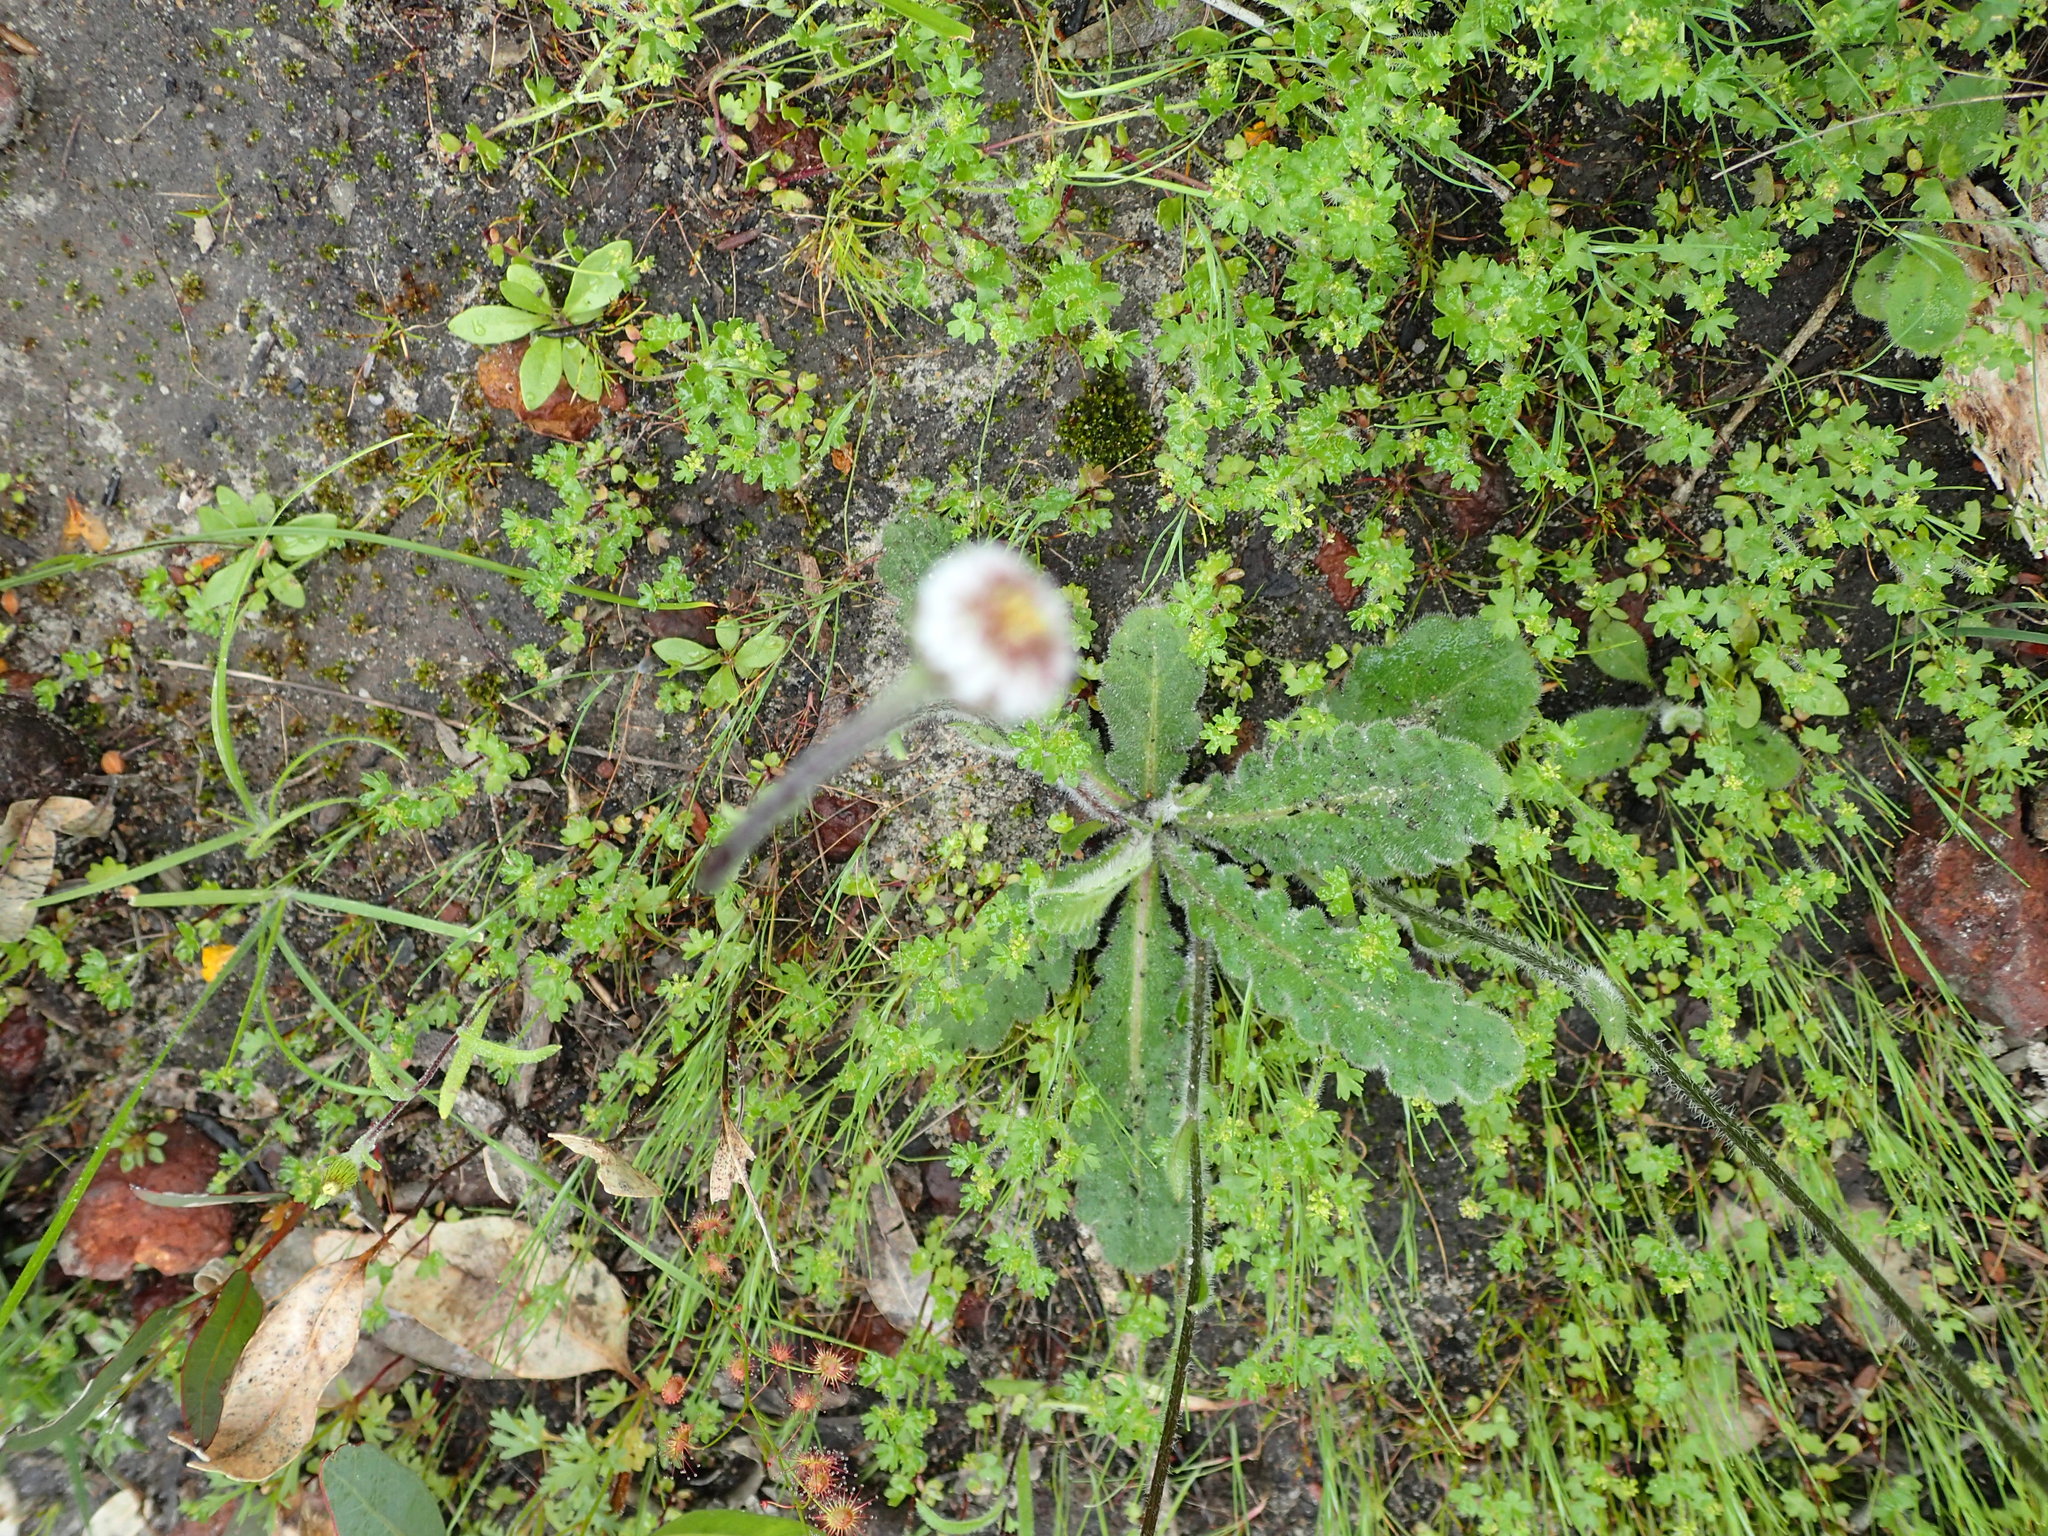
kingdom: Plantae
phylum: Tracheophyta
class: Magnoliopsida
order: Asterales
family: Asteraceae
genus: Lagenophora
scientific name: Lagenophora huegelii
